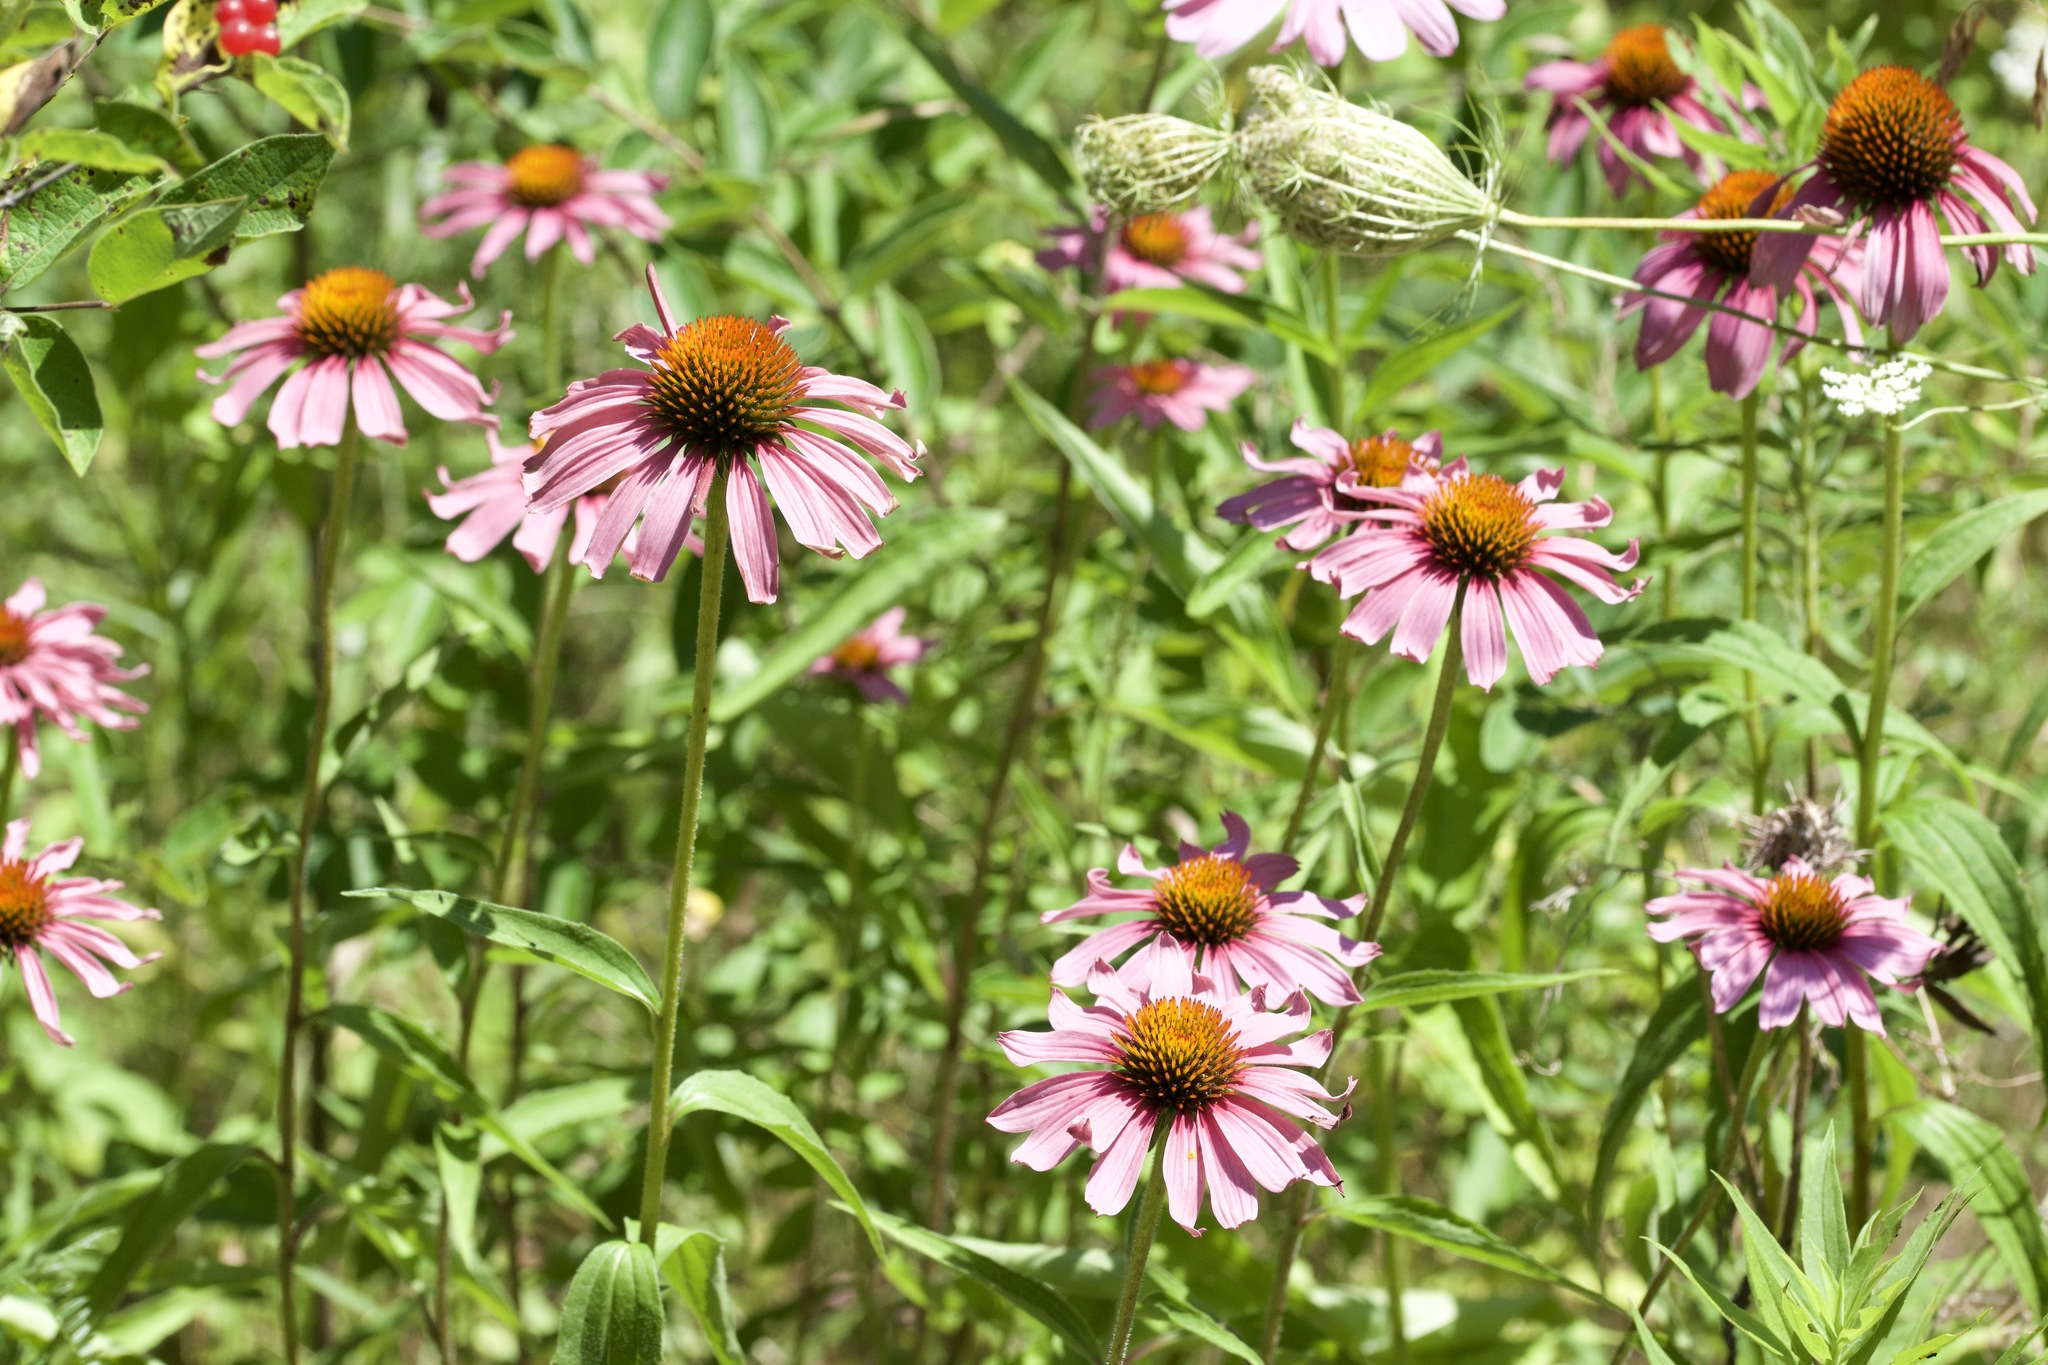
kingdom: Plantae
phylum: Tracheophyta
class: Magnoliopsida
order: Asterales
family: Asteraceae
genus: Echinacea
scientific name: Echinacea purpurea
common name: Broad-leaved purple coneflower
